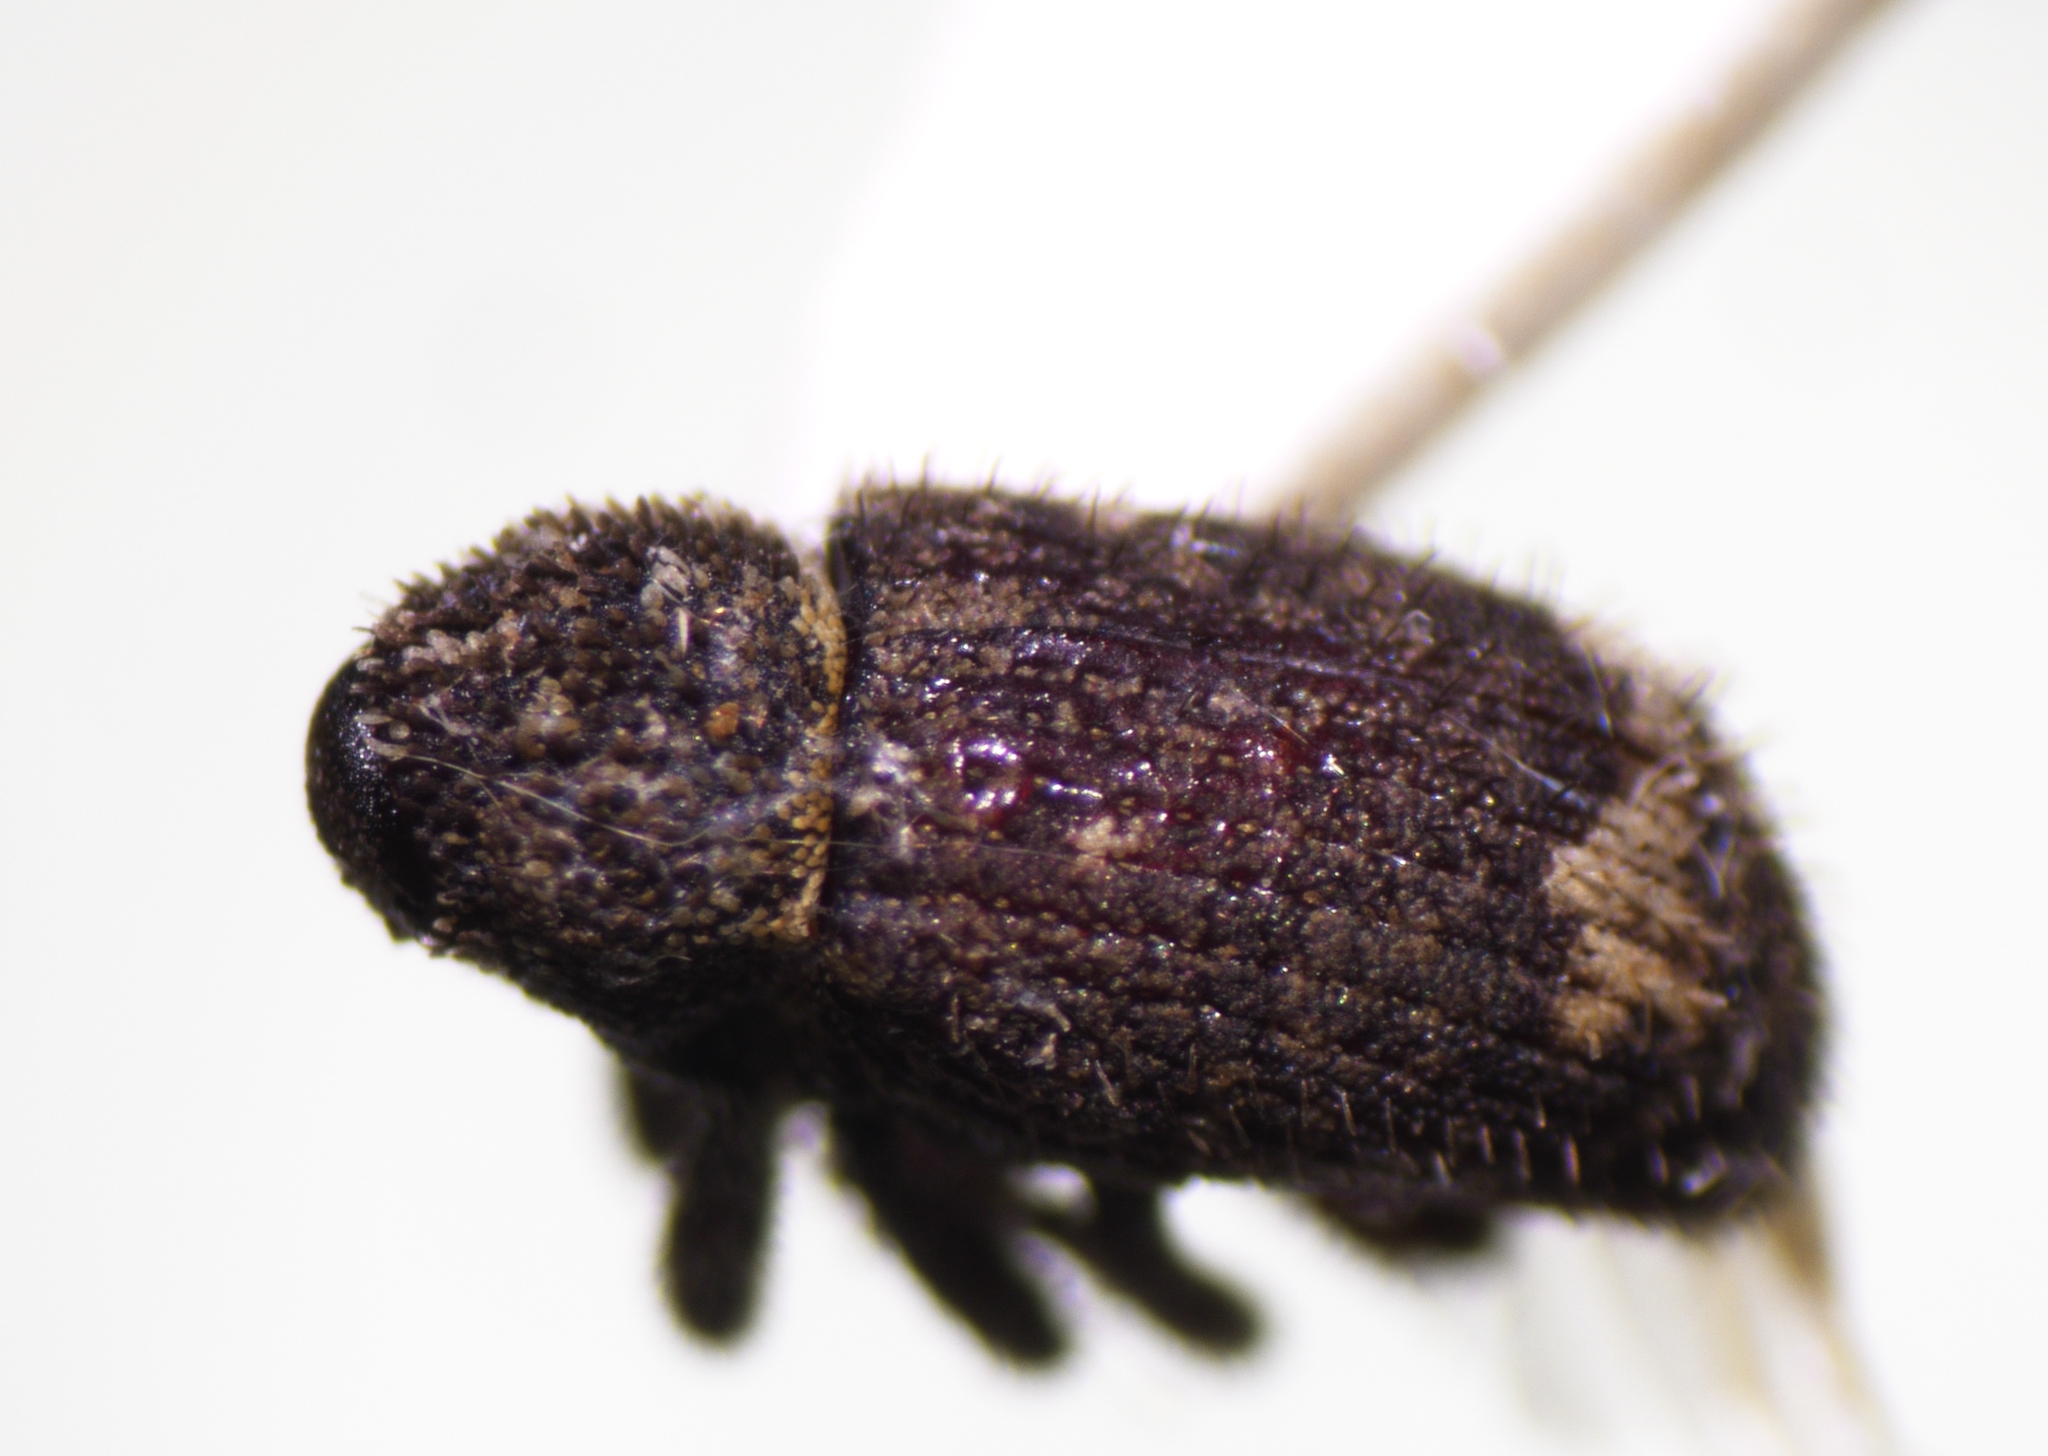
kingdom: Animalia
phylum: Arthropoda
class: Insecta
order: Coleoptera
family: Curculionidae
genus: Euscepes
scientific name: Euscepes postfasciatus
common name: West indian sweet potato weevil
